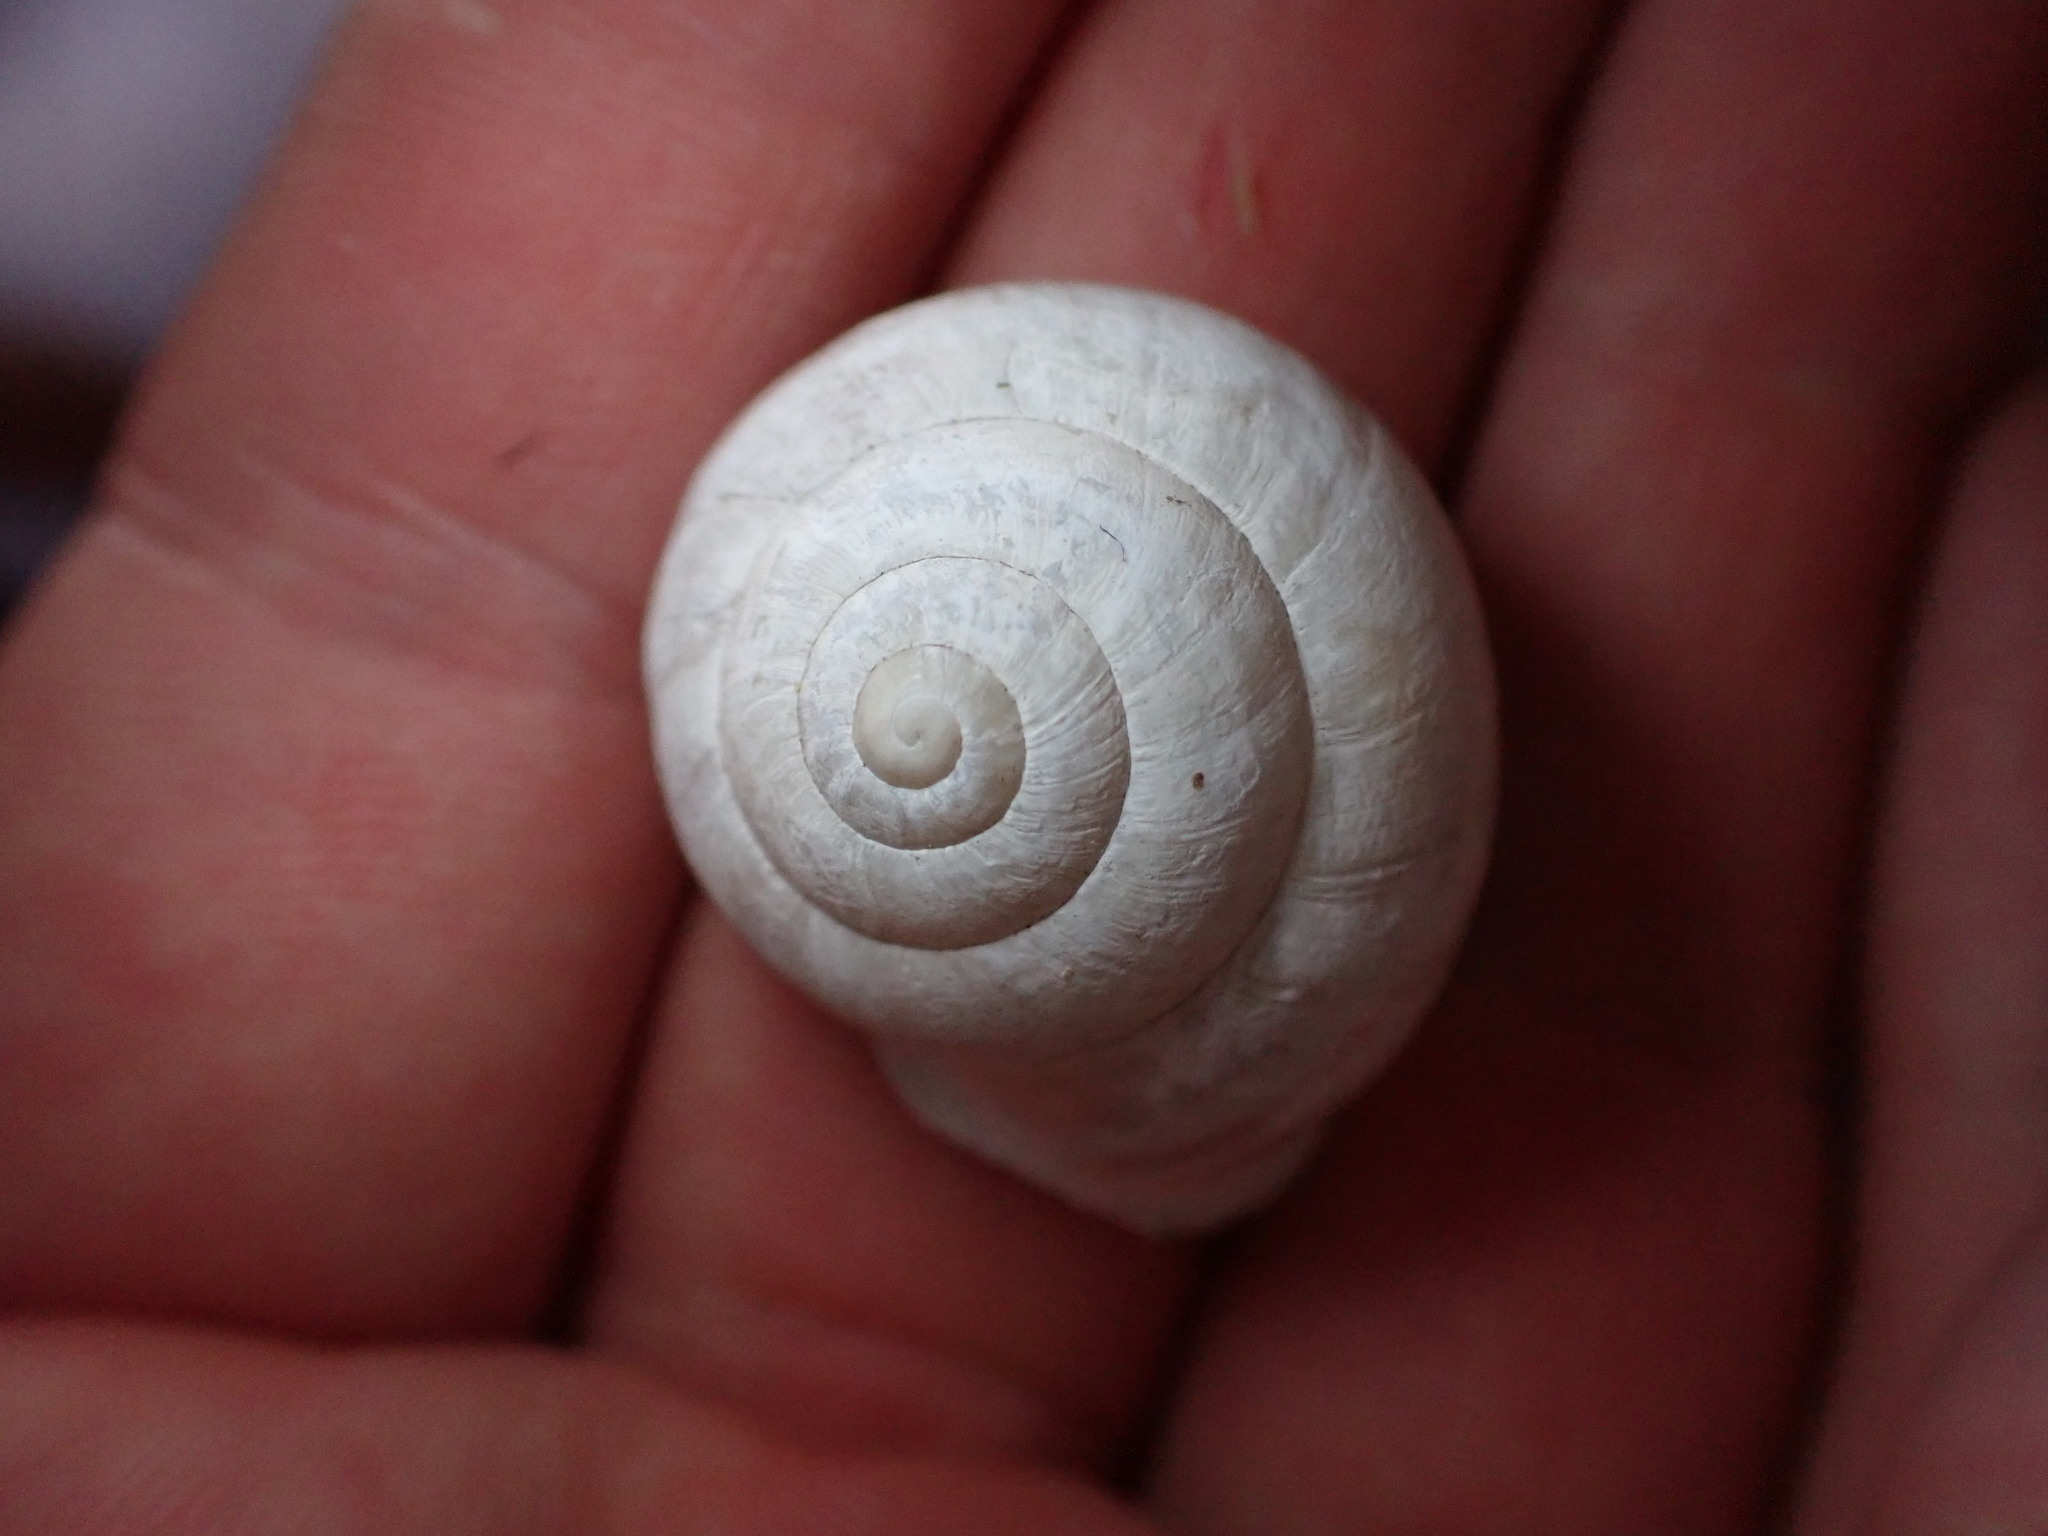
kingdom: Animalia
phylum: Mollusca
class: Gastropoda
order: Stylommatophora
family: Helicidae
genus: Eobania
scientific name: Eobania vermiculata
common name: Chocolateband snail
